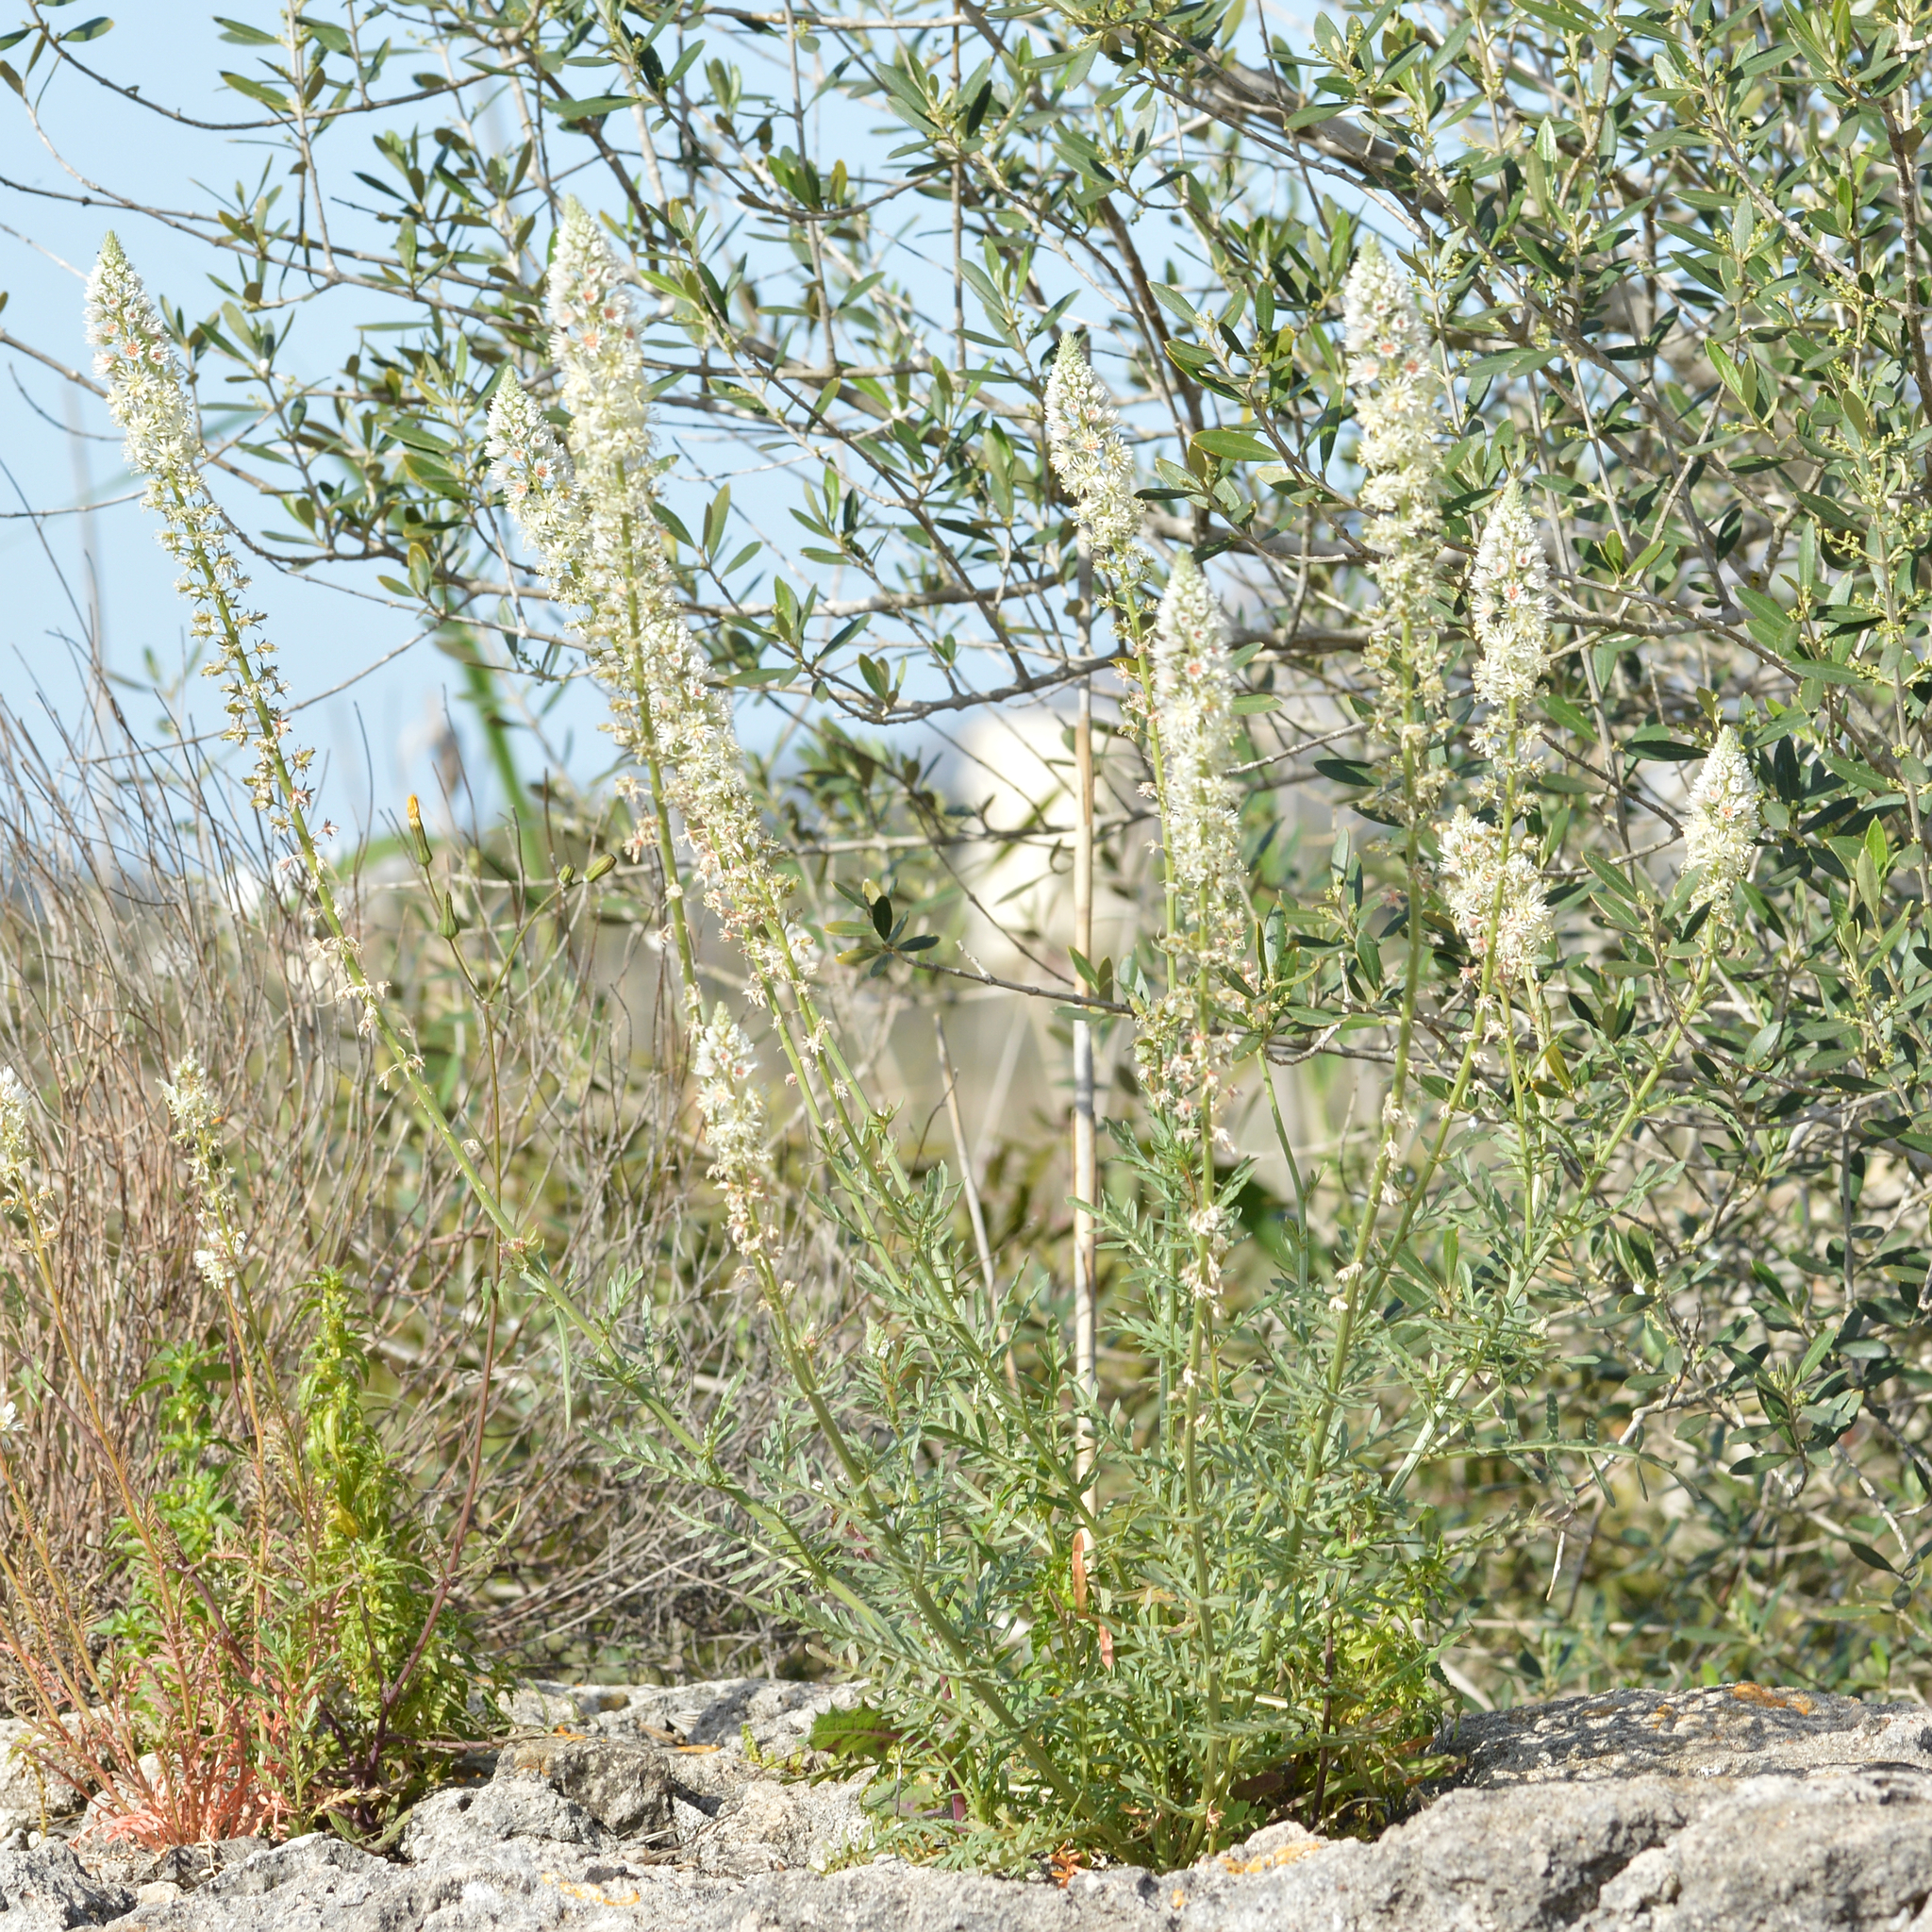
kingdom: Plantae
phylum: Tracheophyta
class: Magnoliopsida
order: Brassicales
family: Resedaceae
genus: Reseda
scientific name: Reseda alba
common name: White mignonette
